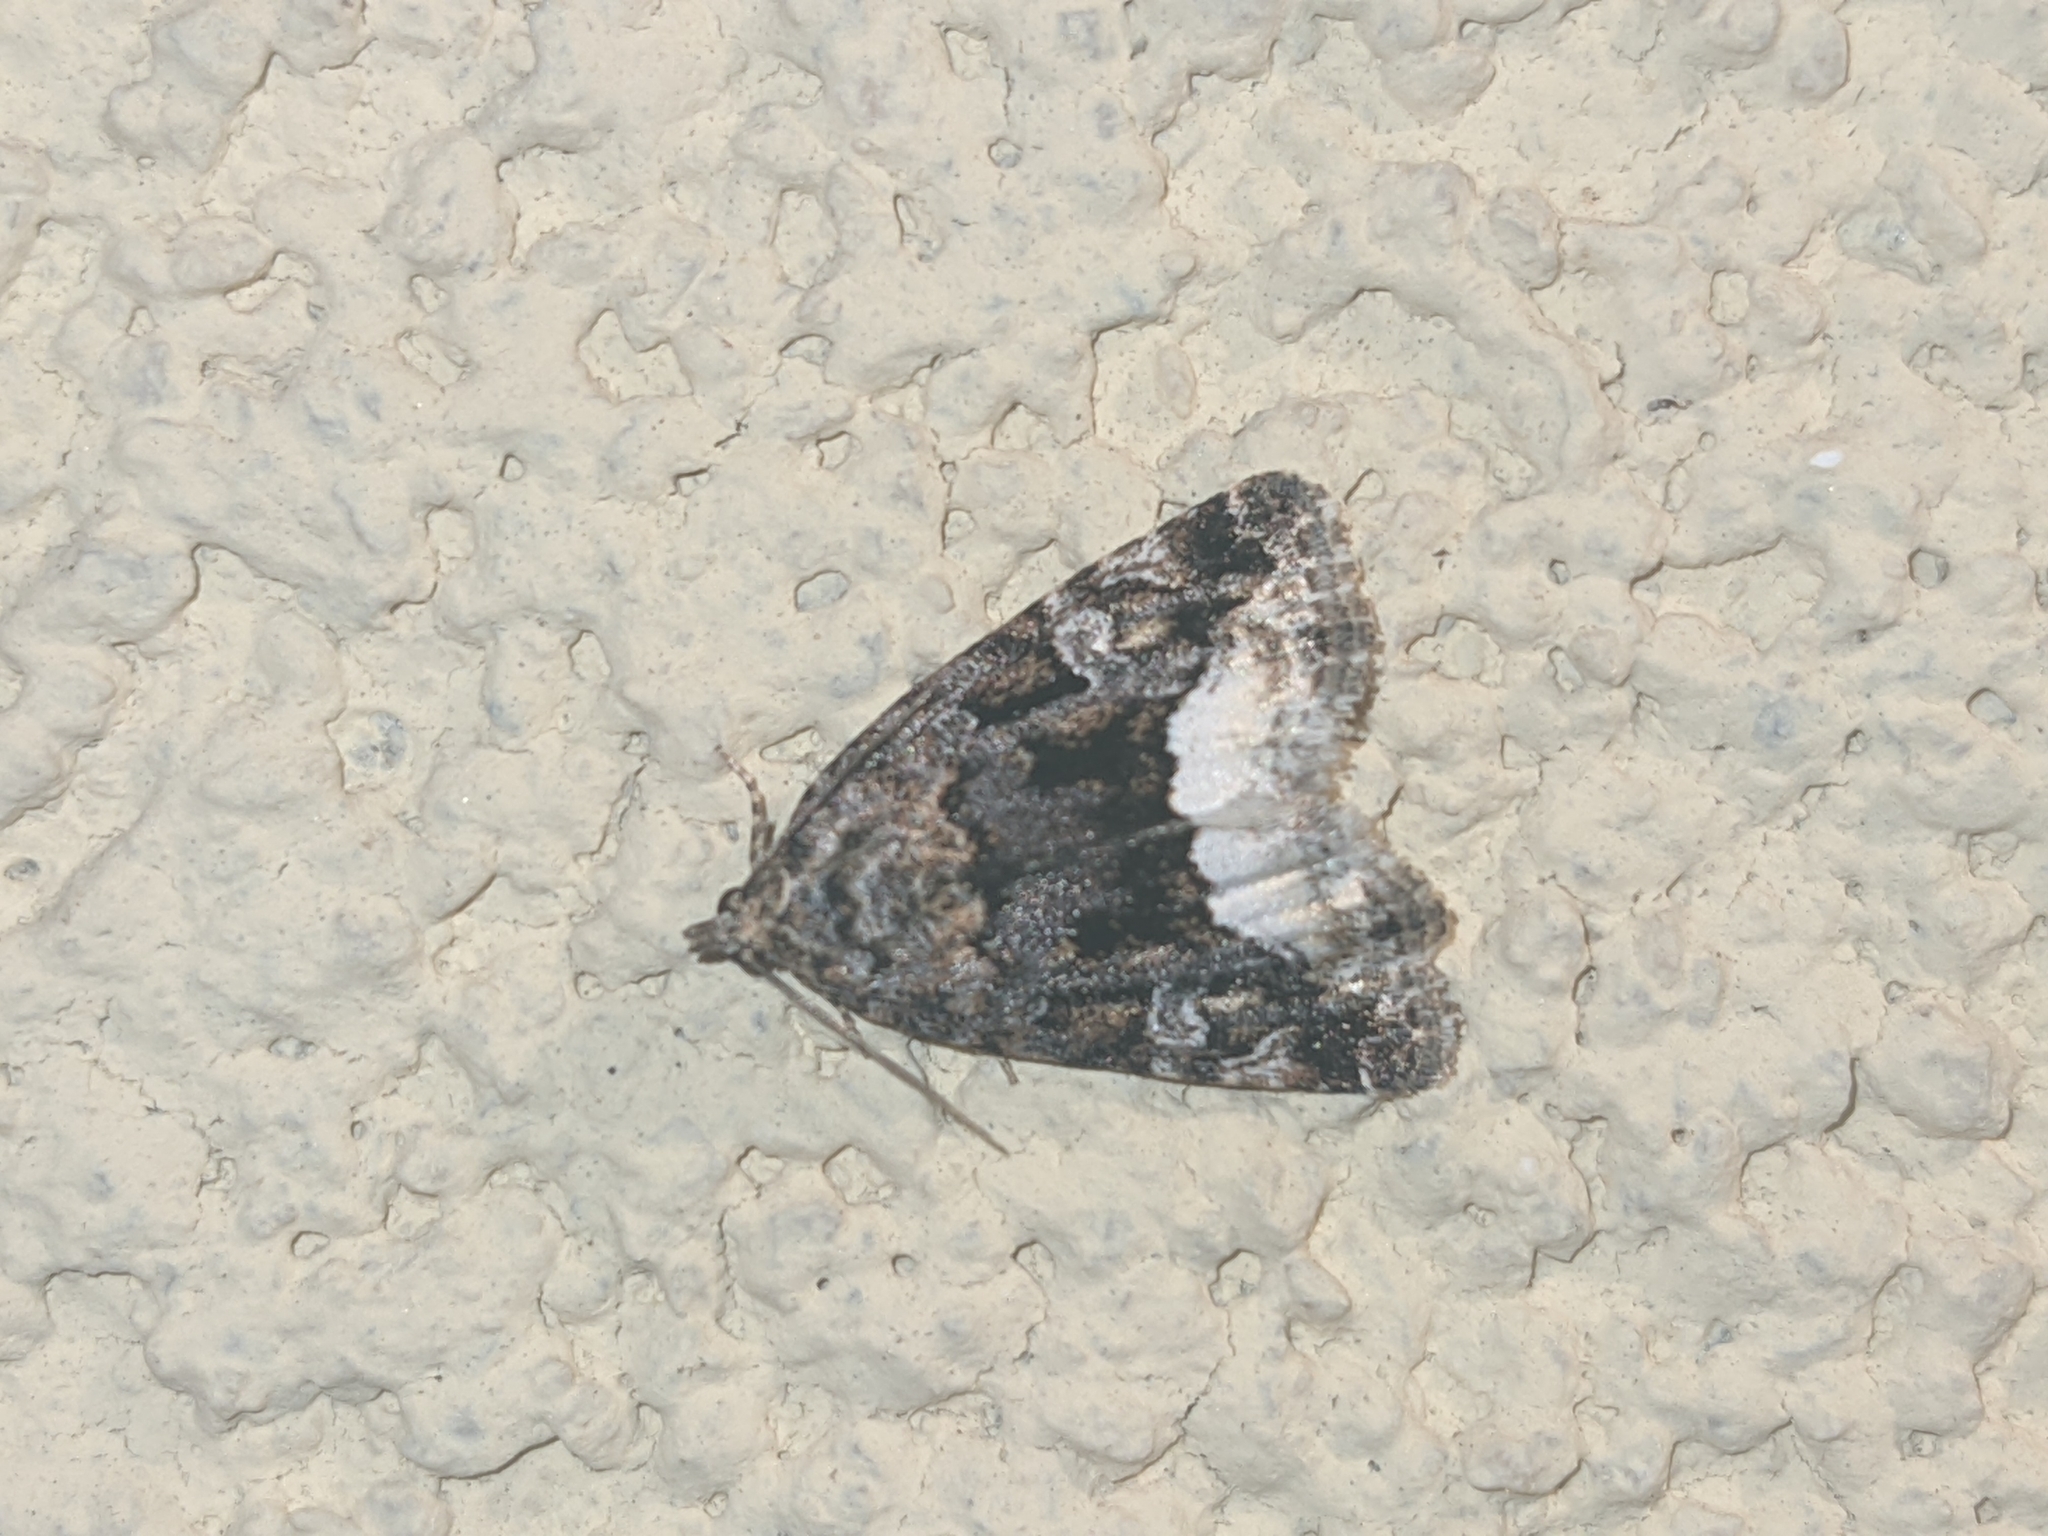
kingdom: Animalia
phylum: Arthropoda
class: Insecta
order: Lepidoptera
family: Noctuidae
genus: Deltote
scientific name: Deltote pygarga
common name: Marbled white spot
